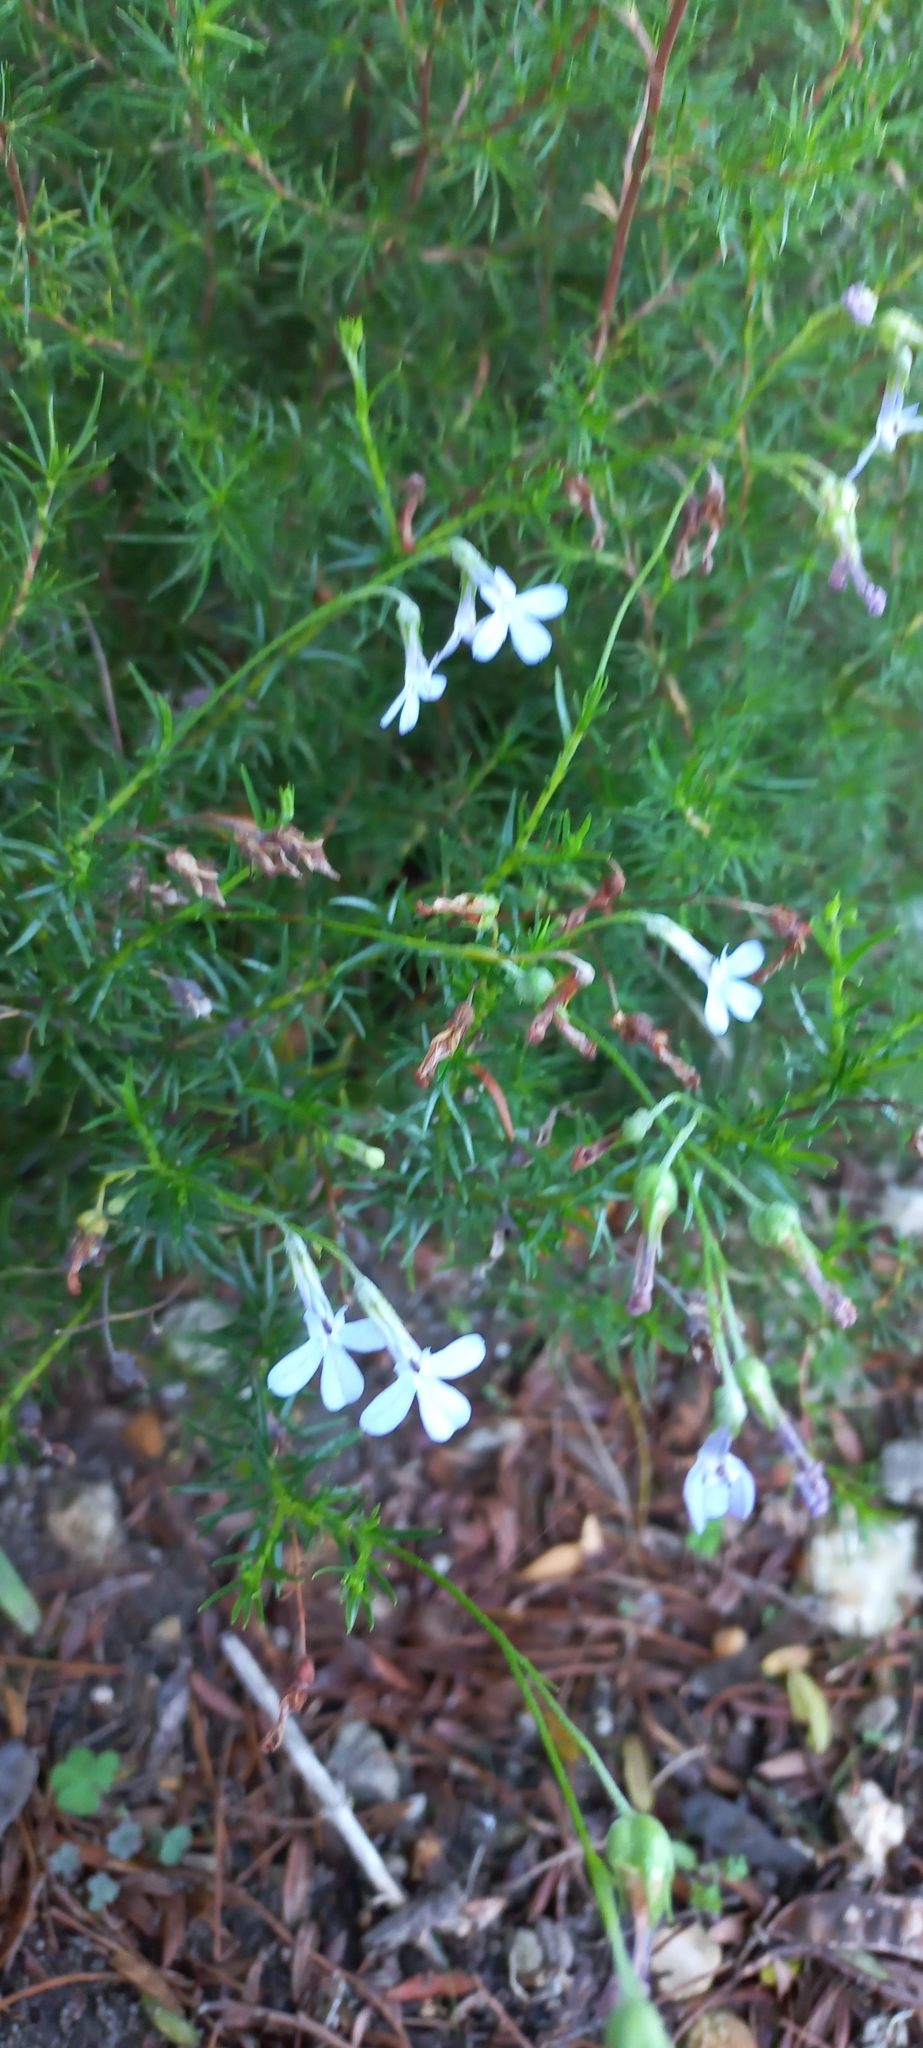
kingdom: Plantae
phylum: Tracheophyta
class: Magnoliopsida
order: Asterales
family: Campanulaceae
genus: Lobelia
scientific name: Lobelia pinifolia
